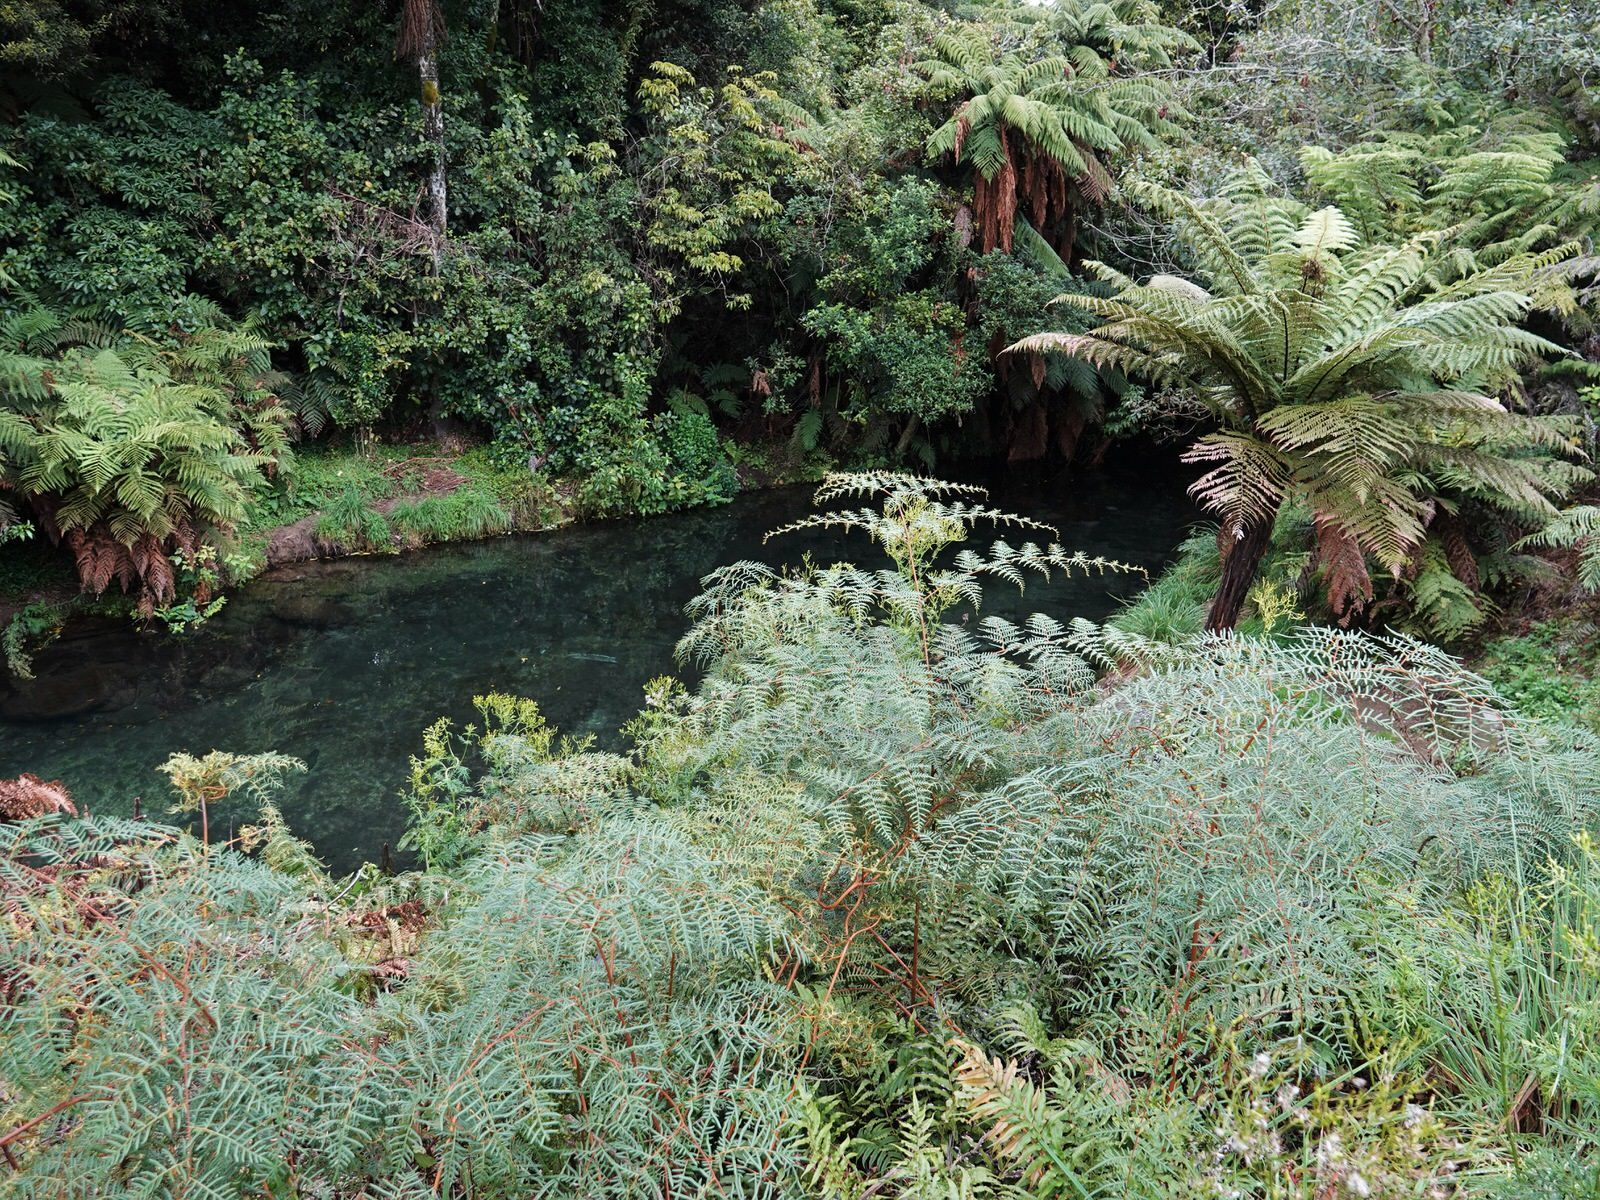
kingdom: Plantae
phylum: Tracheophyta
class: Polypodiopsida
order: Polypodiales
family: Dennstaedtiaceae
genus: Pteridium
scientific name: Pteridium esculentum
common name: Bracken fern
